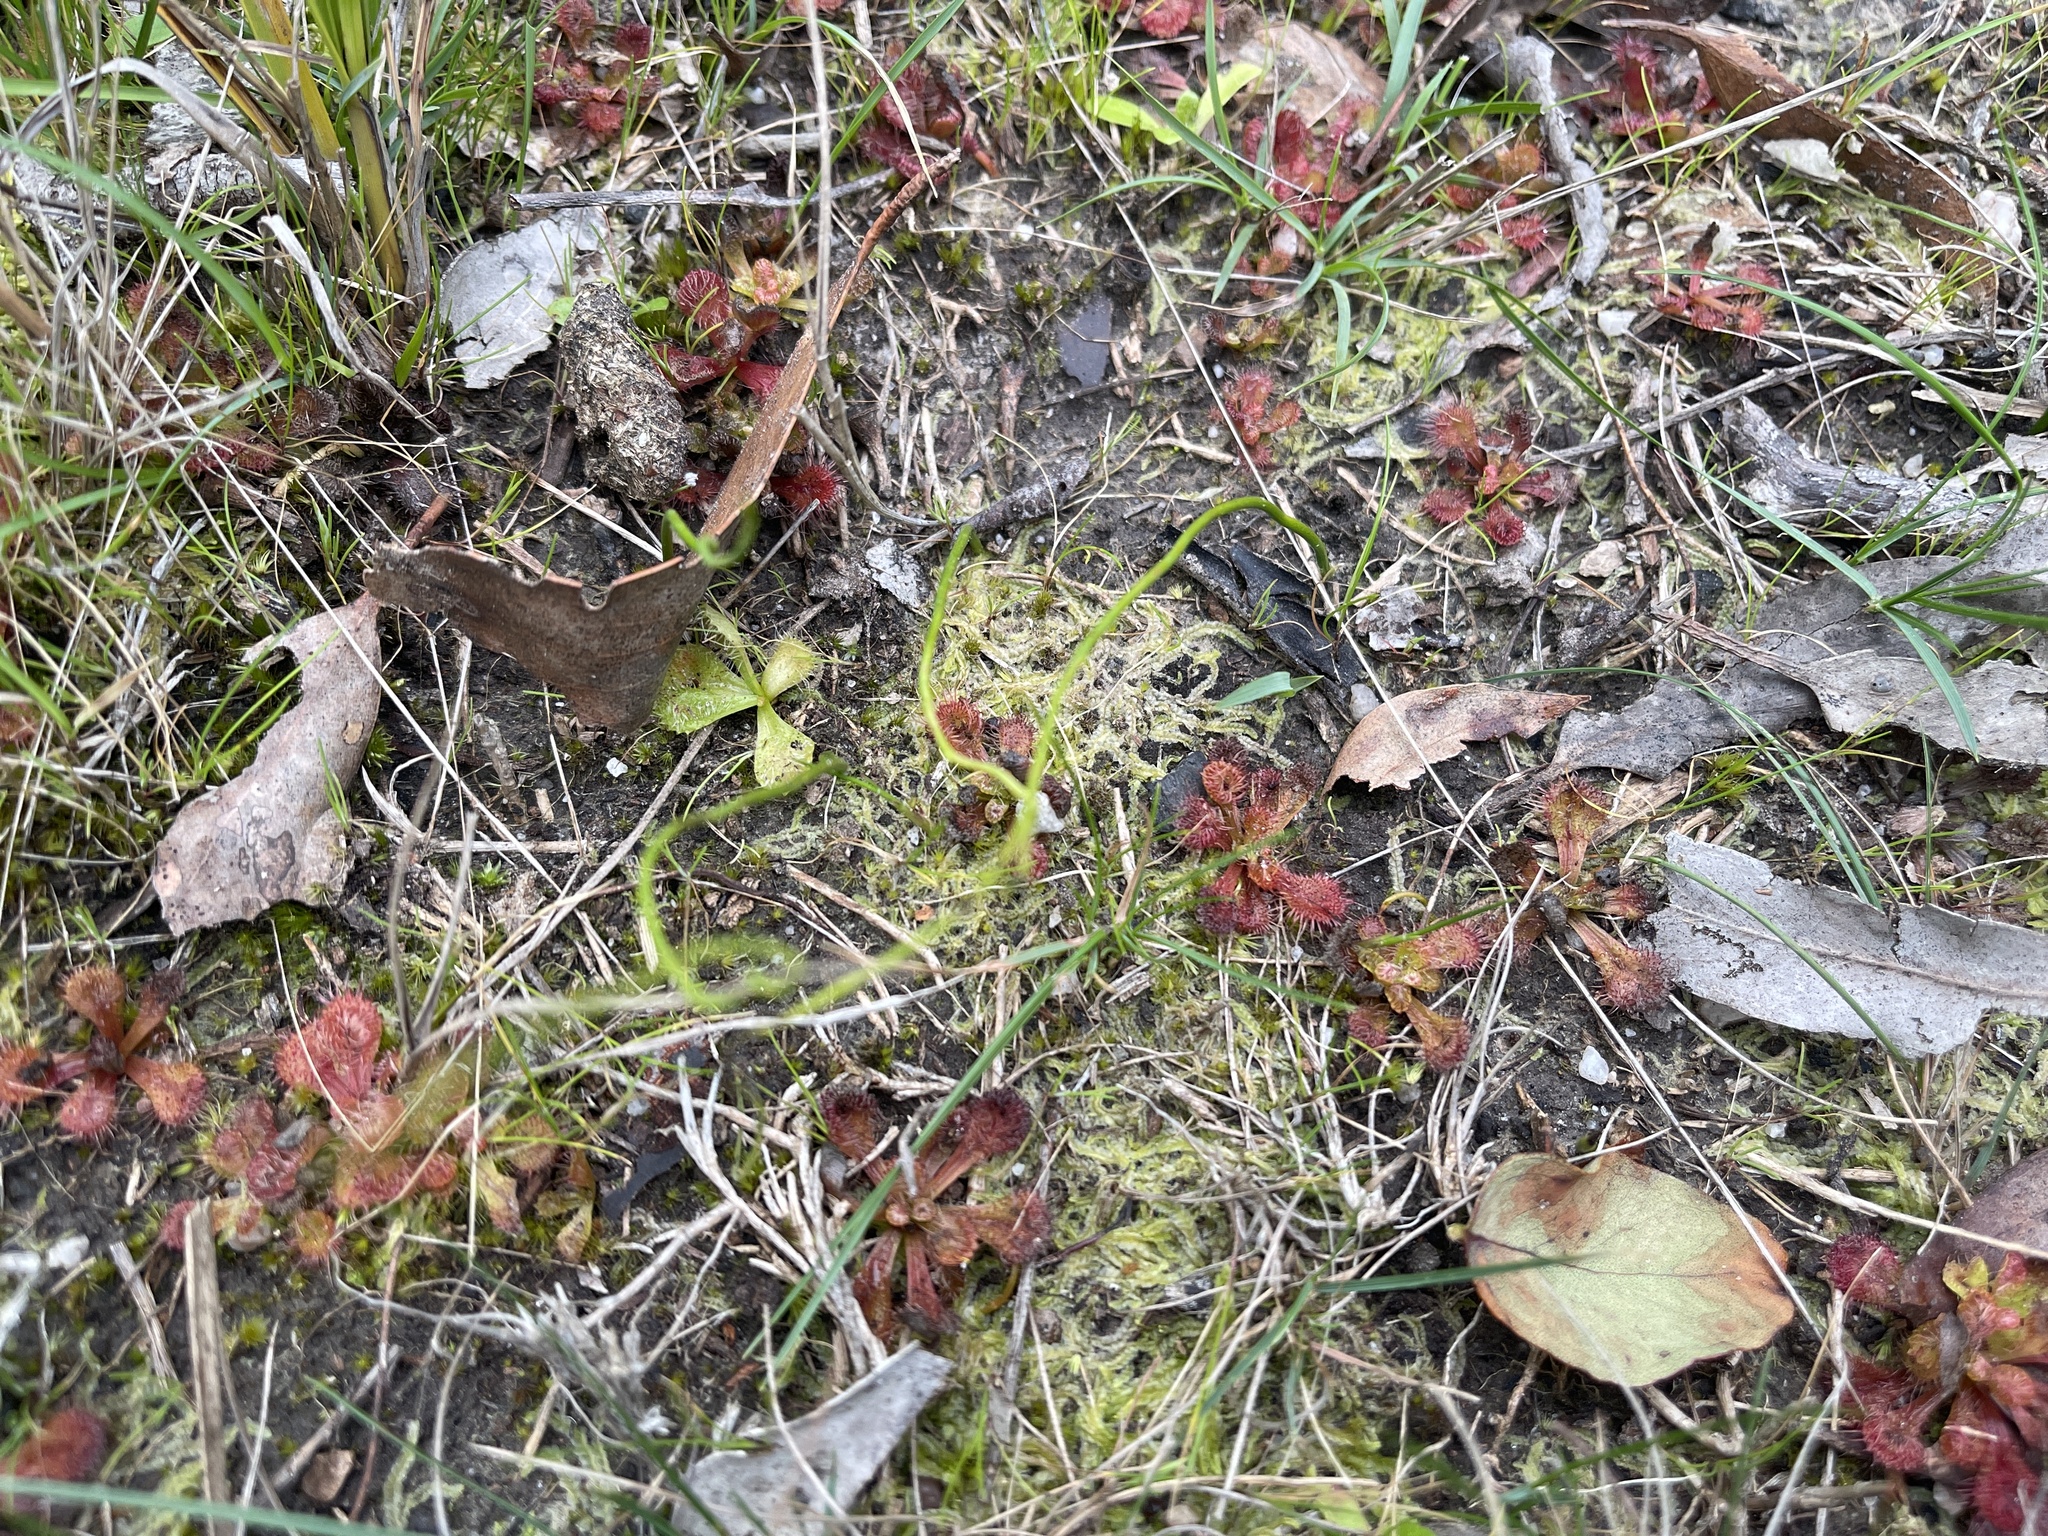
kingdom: Plantae
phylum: Tracheophyta
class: Magnoliopsida
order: Caryophyllales
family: Droseraceae
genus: Drosera
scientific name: Drosera aberrans
